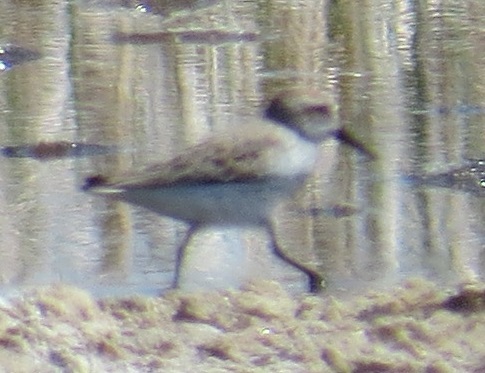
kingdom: Animalia
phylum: Chordata
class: Aves
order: Charadriiformes
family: Scolopacidae
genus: Calidris
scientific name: Calidris mauri
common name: Western sandpiper
